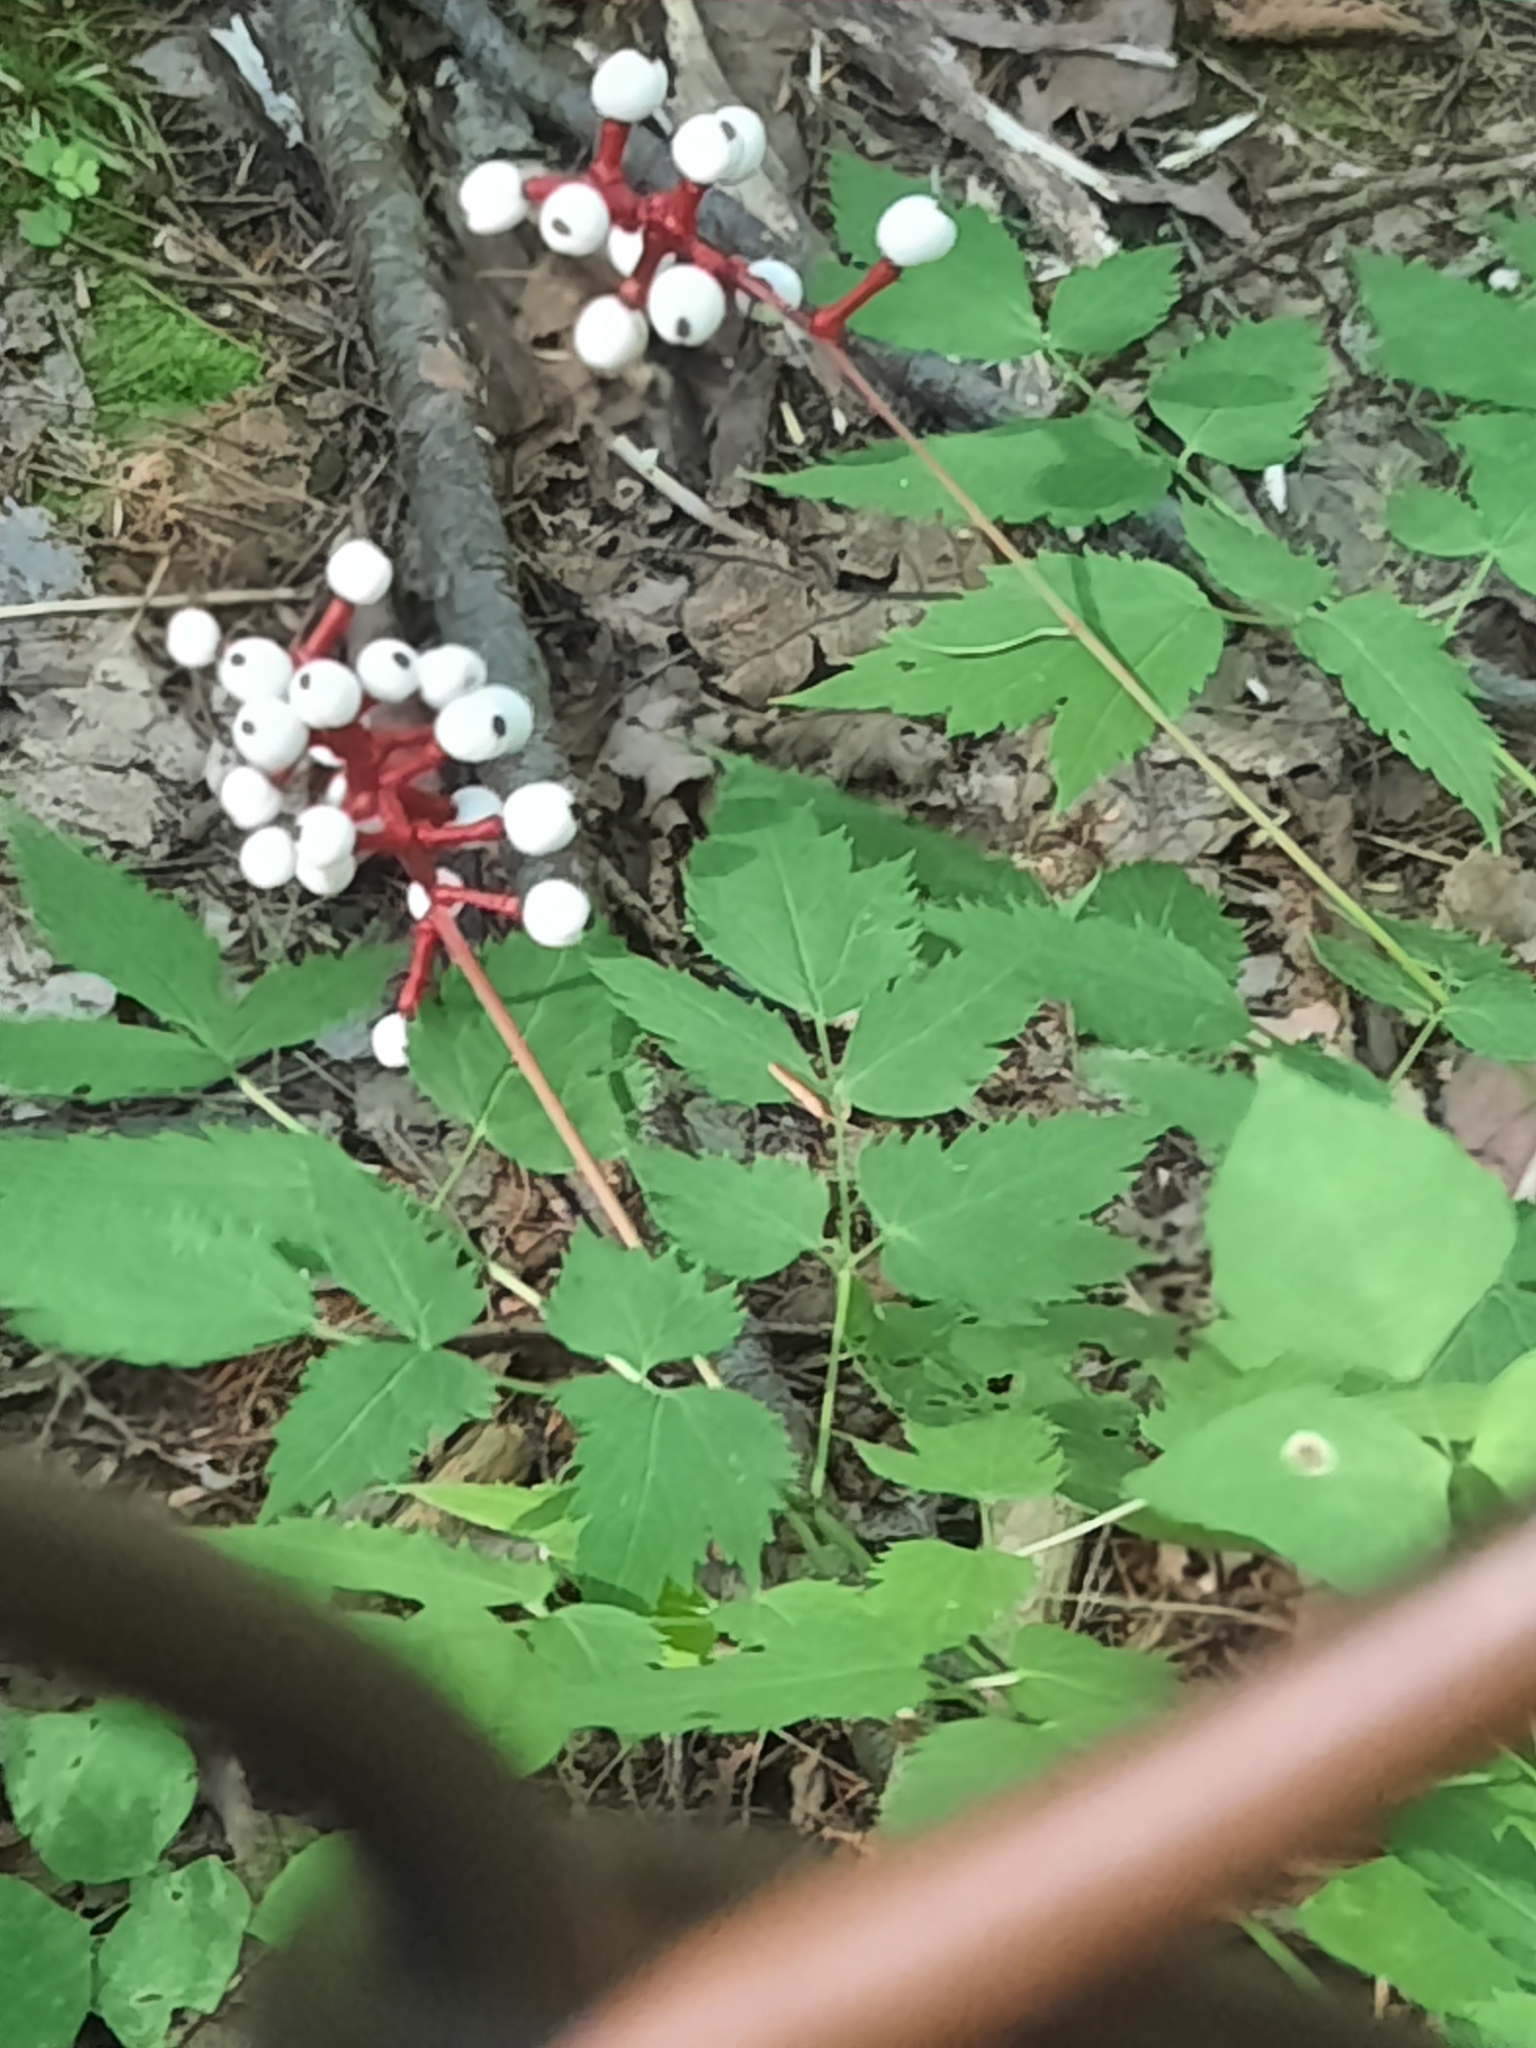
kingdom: Plantae
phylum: Tracheophyta
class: Magnoliopsida
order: Ranunculales
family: Ranunculaceae
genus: Actaea
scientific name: Actaea pachypoda
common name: Doll's-eyes
